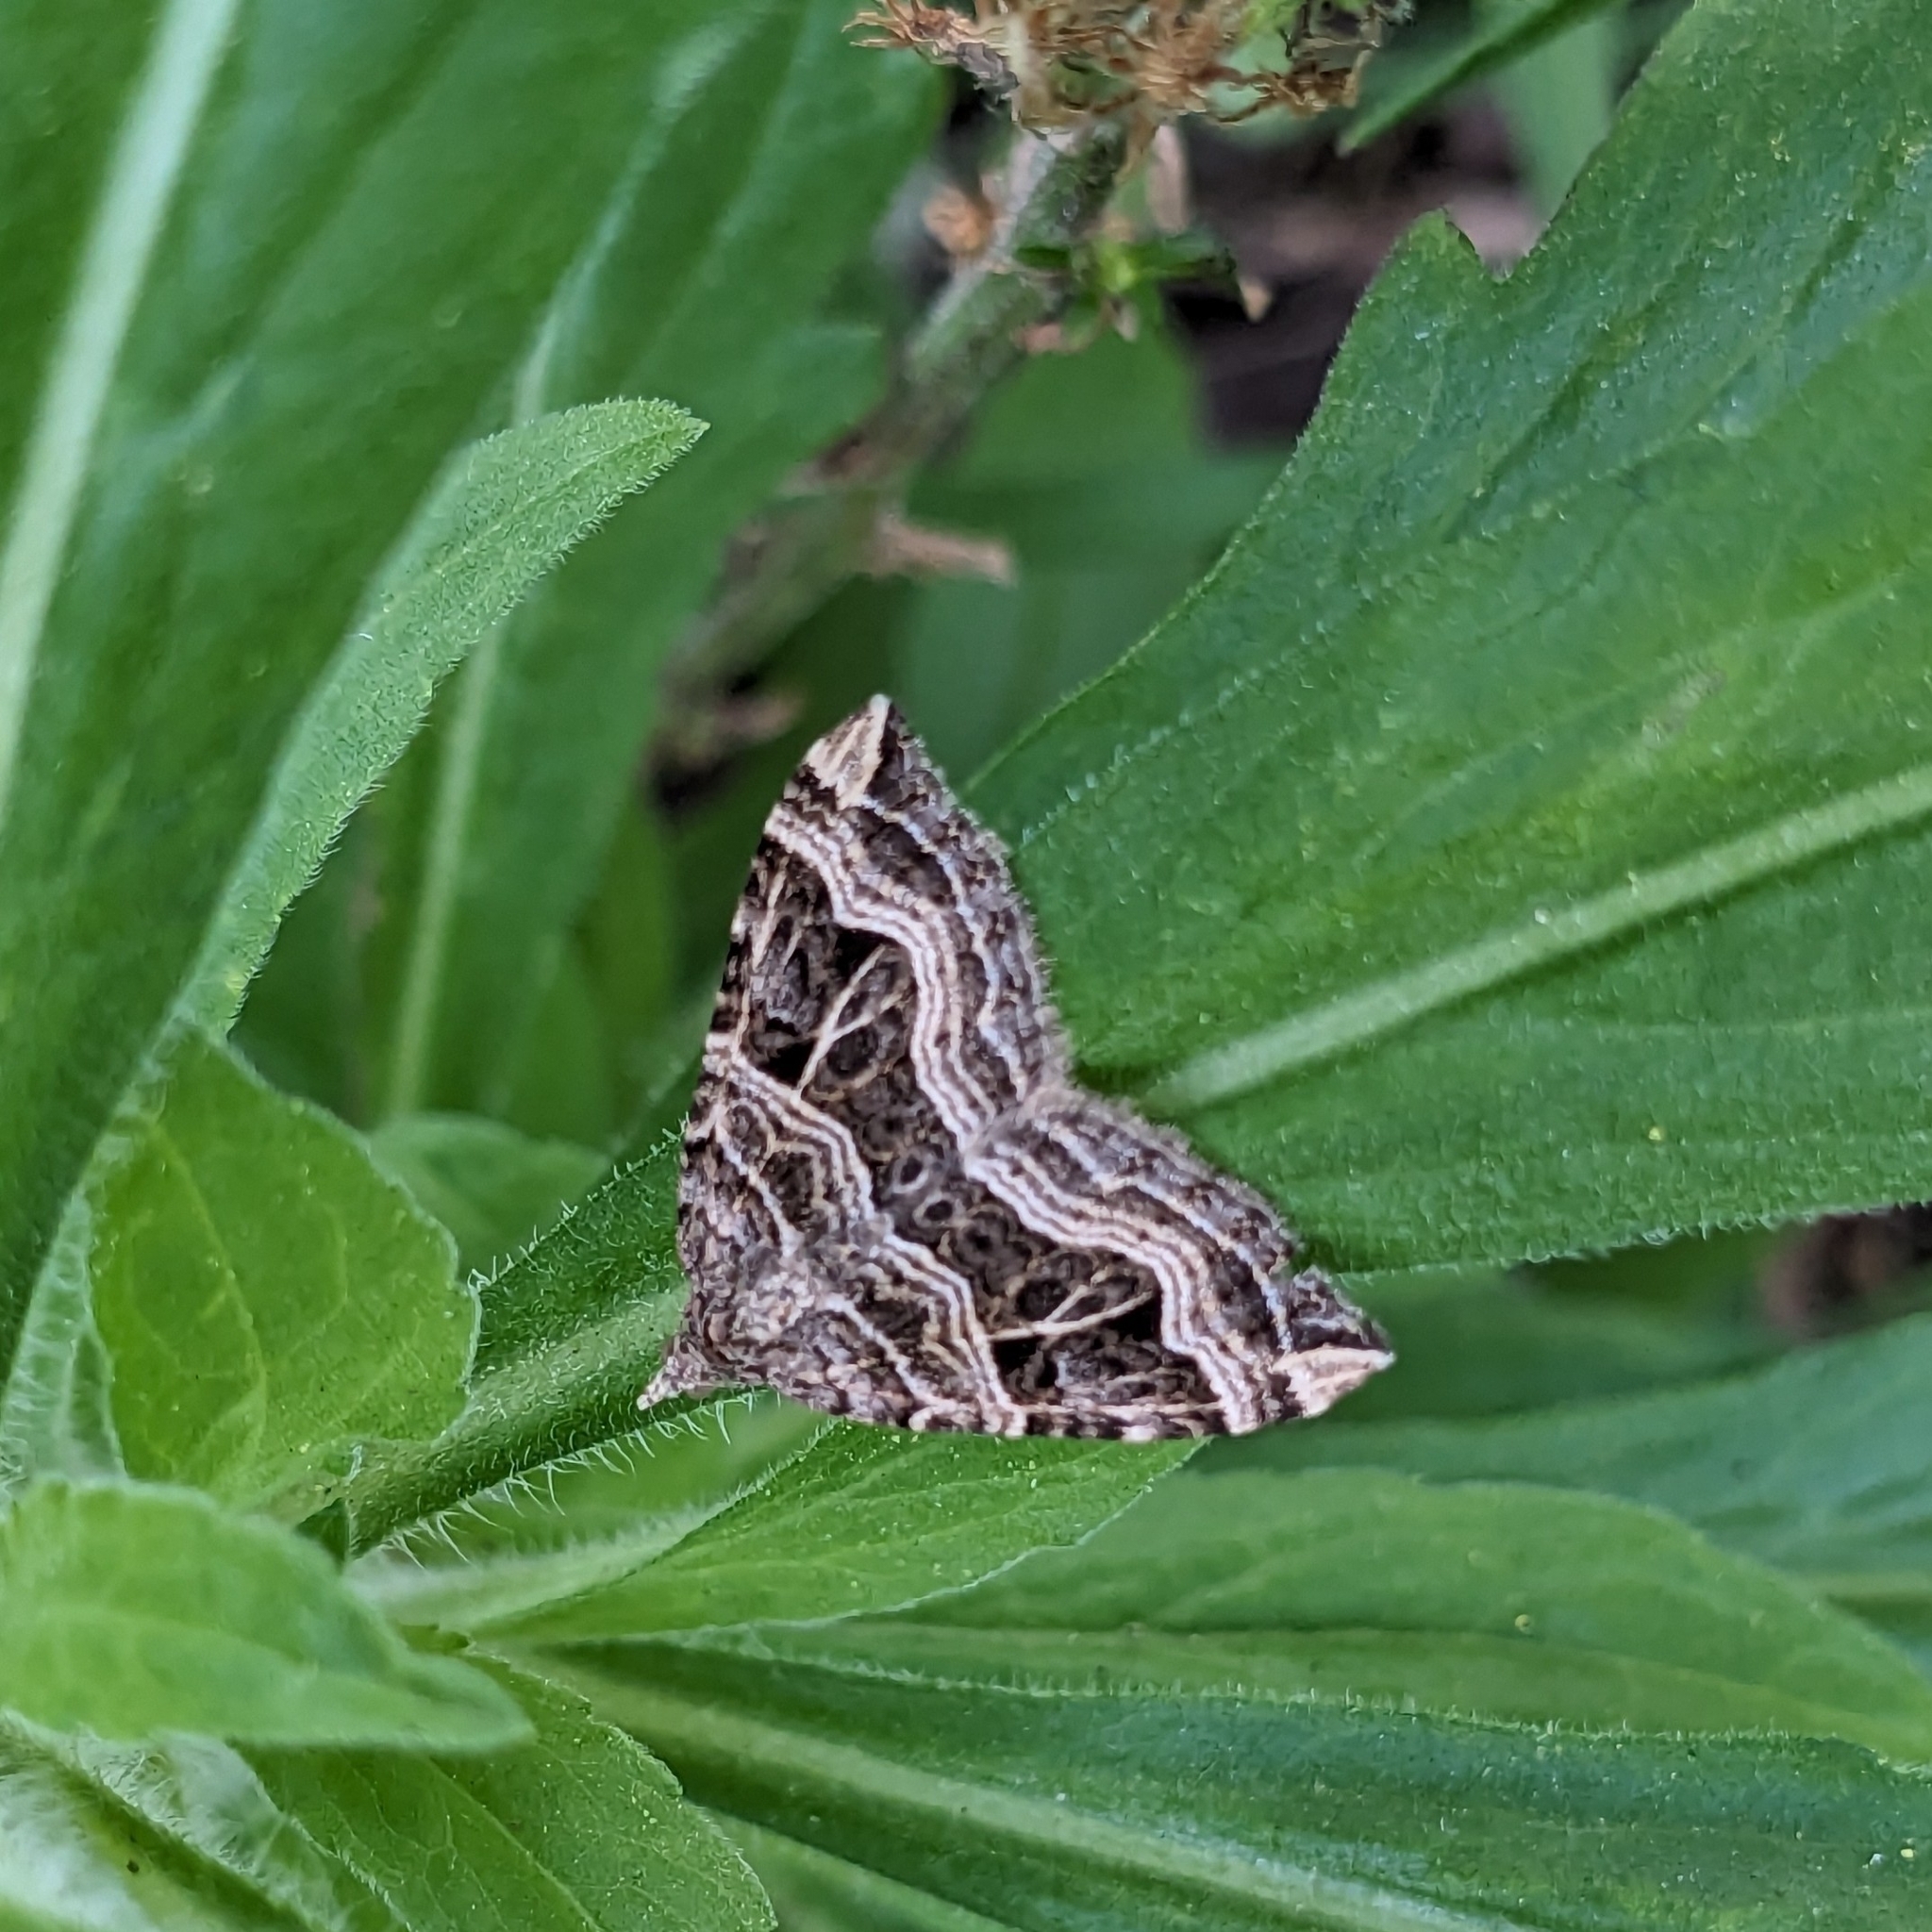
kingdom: Animalia
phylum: Arthropoda
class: Insecta
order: Lepidoptera
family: Geometridae
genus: Xanthorhoe
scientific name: Xanthorhoe semifissata
